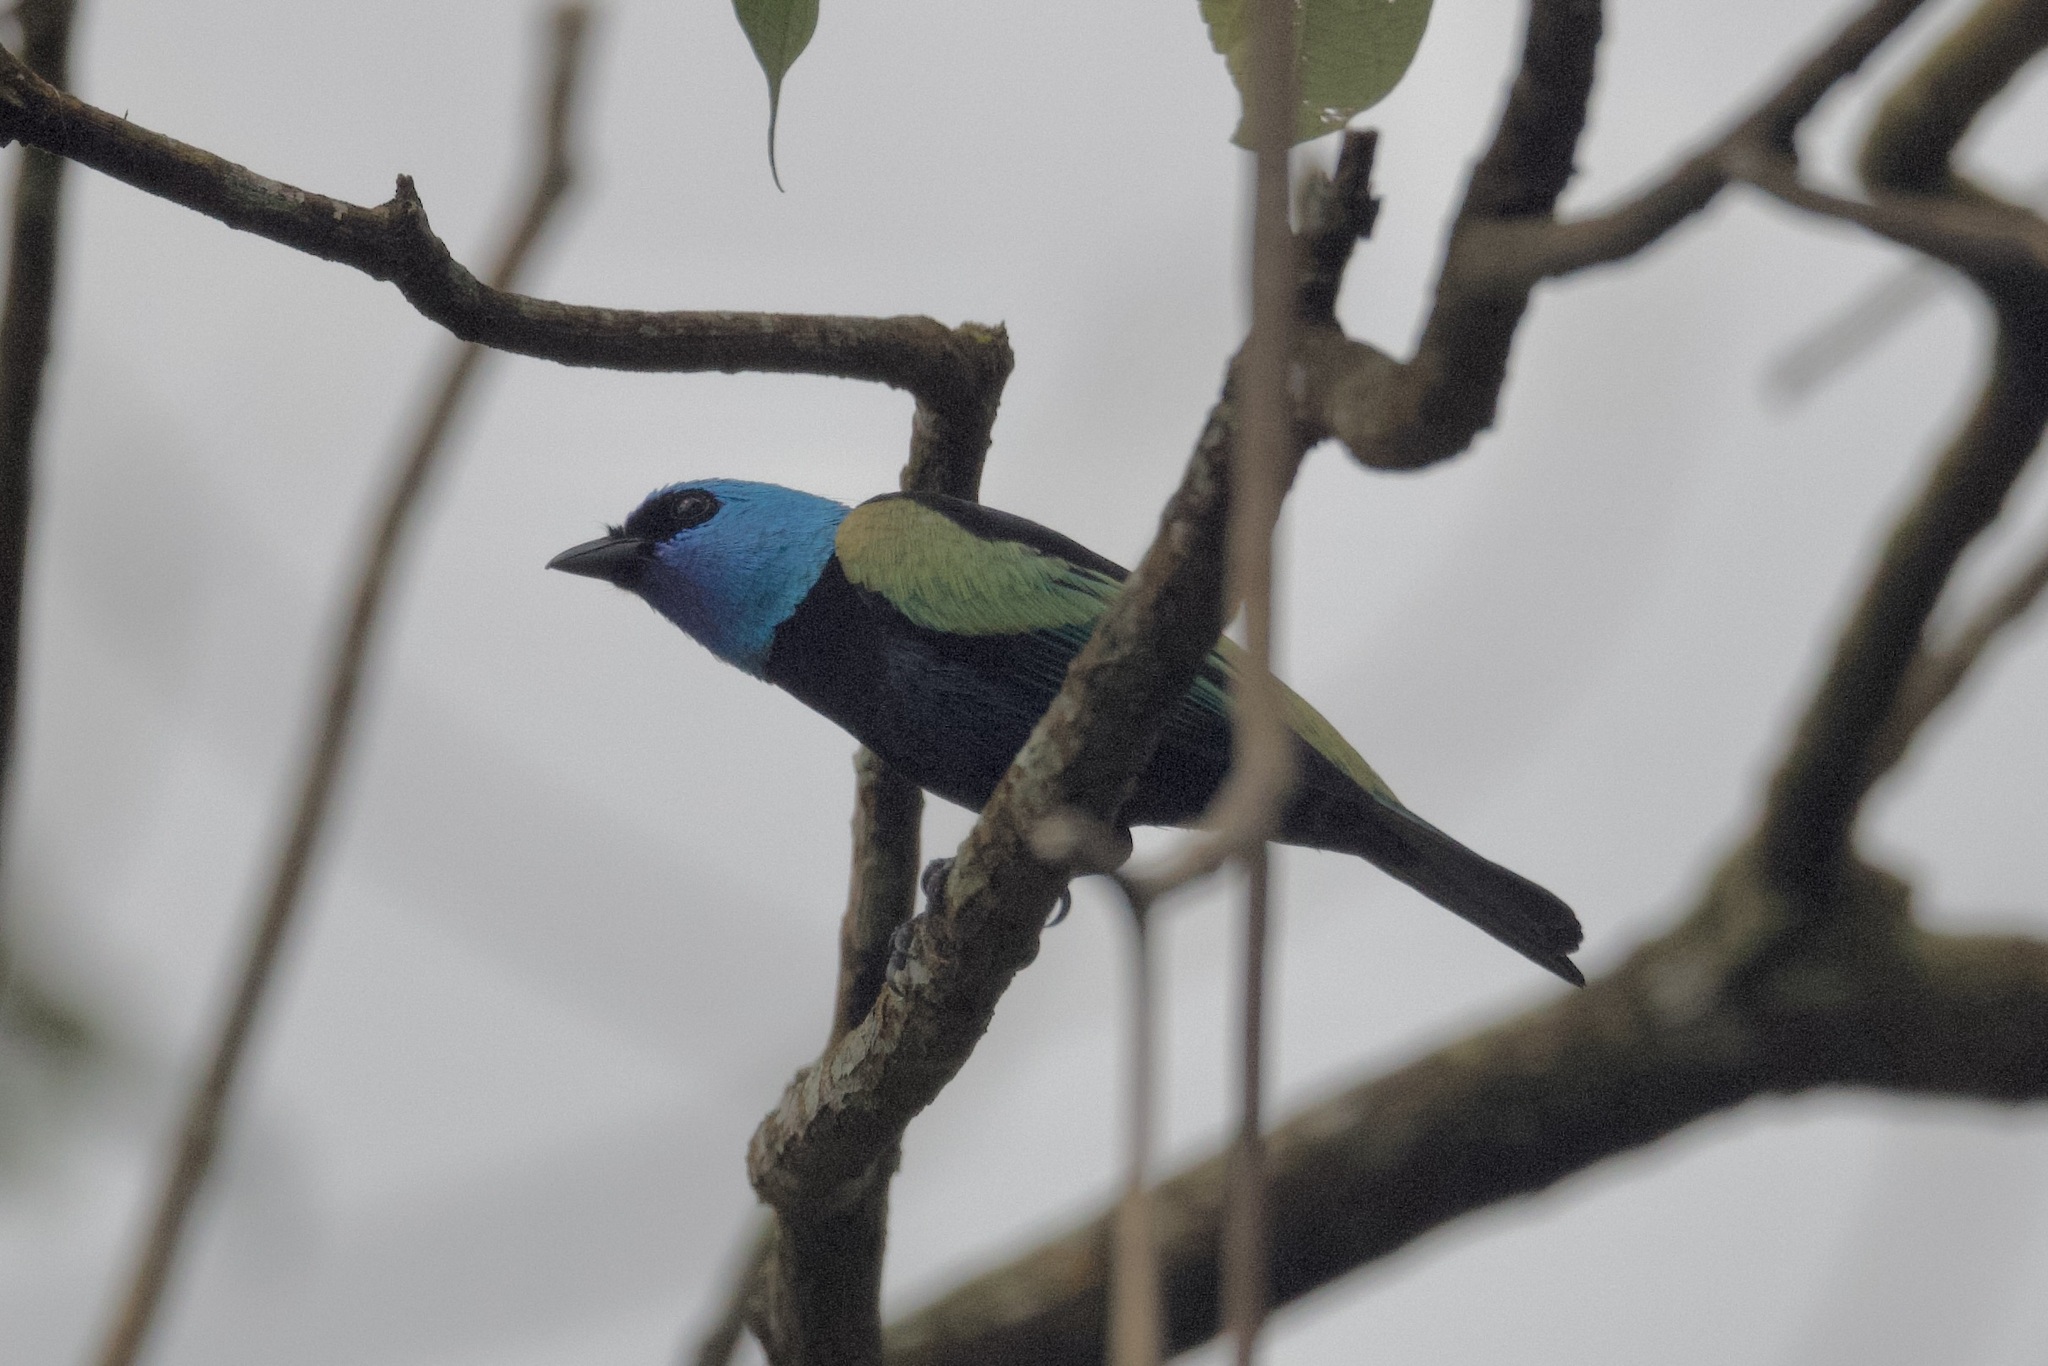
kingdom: Animalia
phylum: Chordata
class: Aves
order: Passeriformes
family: Thraupidae
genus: Stilpnia
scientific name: Stilpnia cyanicollis
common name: Blue-necked tanager
